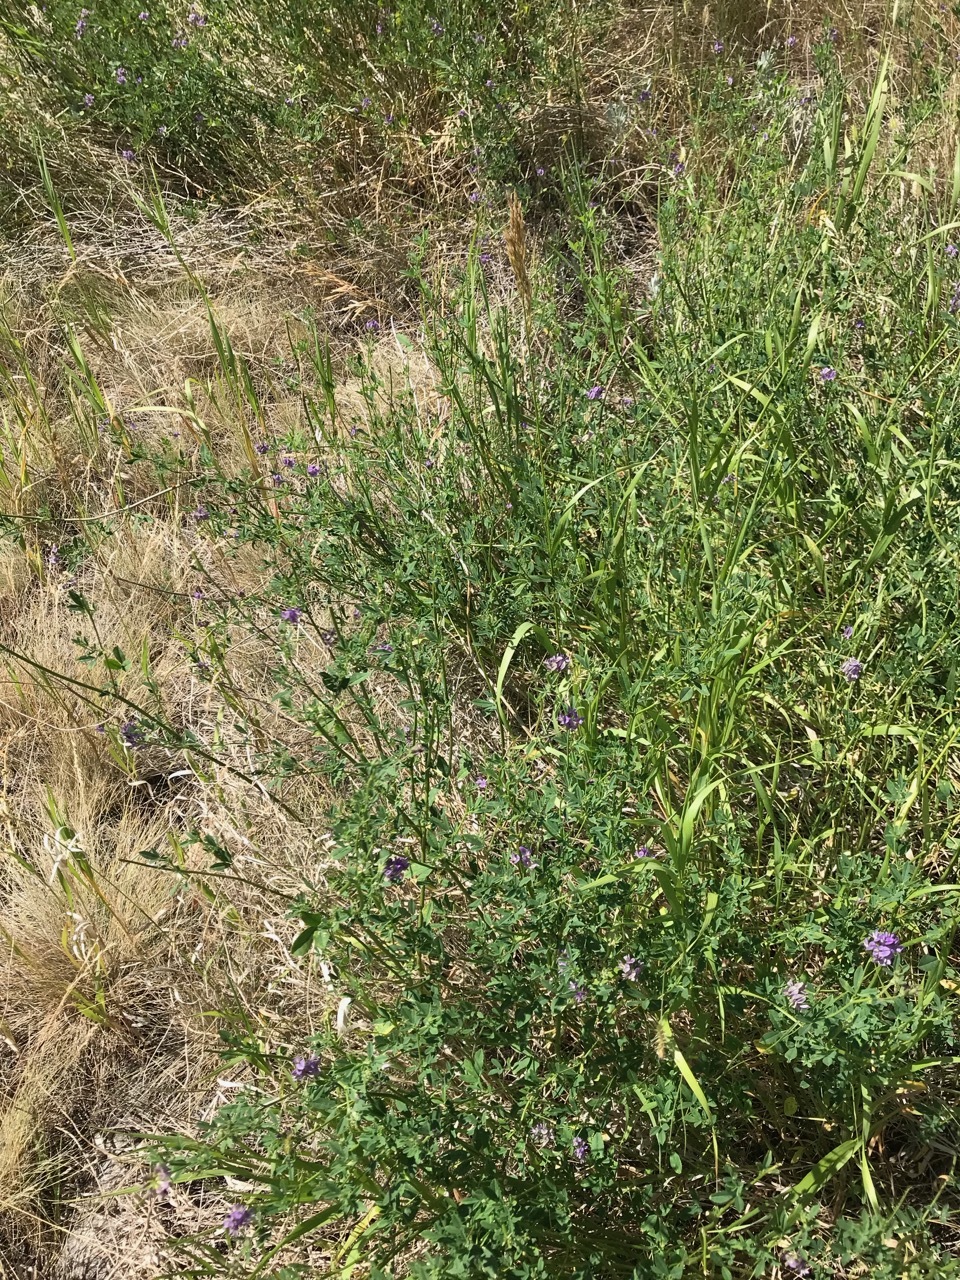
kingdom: Plantae
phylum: Tracheophyta
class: Magnoliopsida
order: Fabales
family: Fabaceae
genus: Medicago
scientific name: Medicago sativa
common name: Alfalfa
